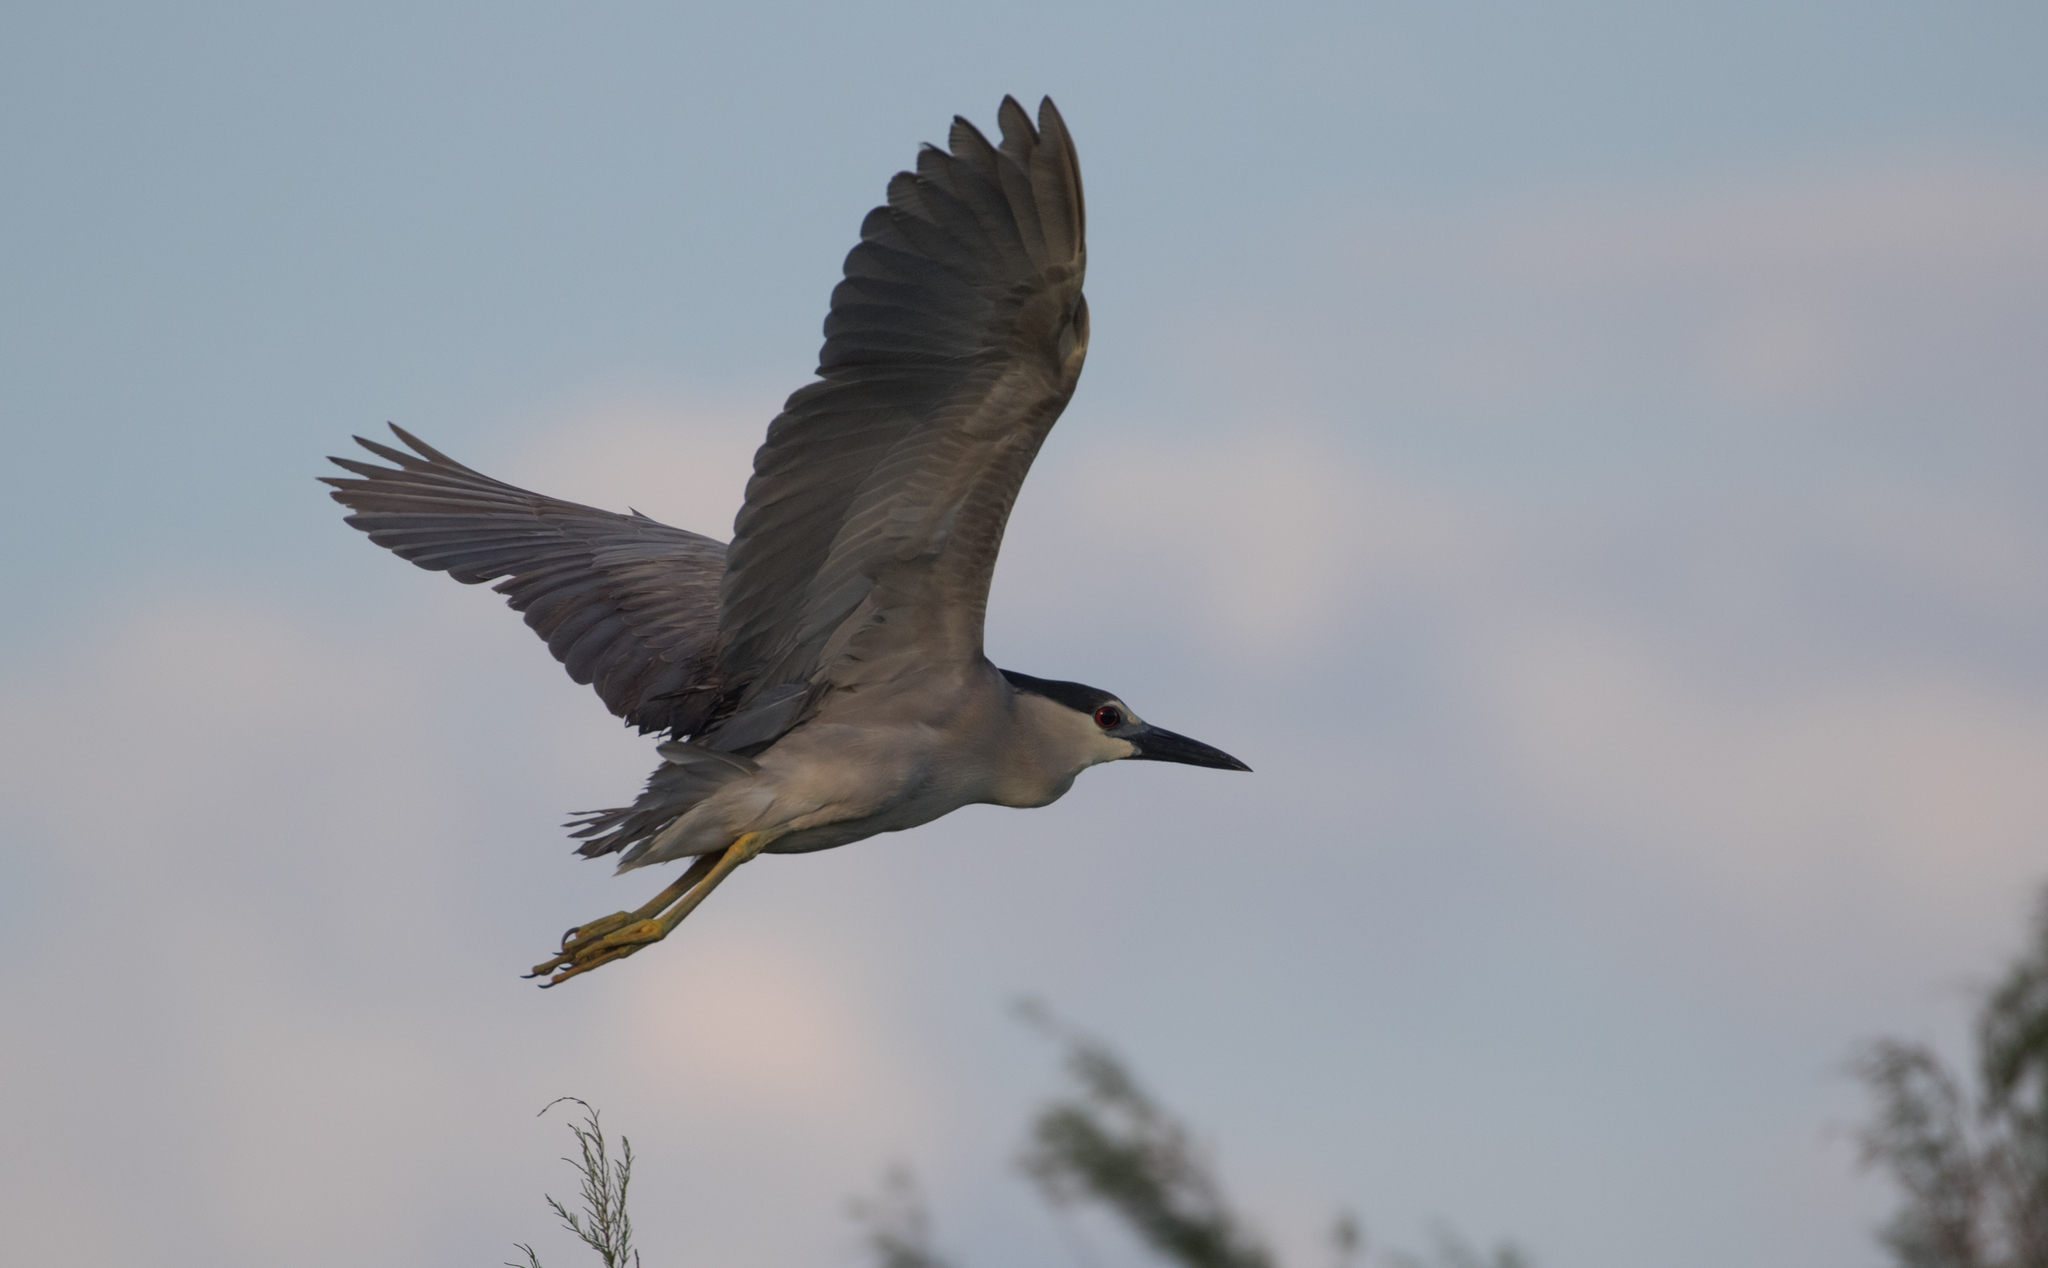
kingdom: Animalia
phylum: Chordata
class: Aves
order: Pelecaniformes
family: Ardeidae
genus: Nycticorax
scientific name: Nycticorax nycticorax
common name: Black-crowned night heron
